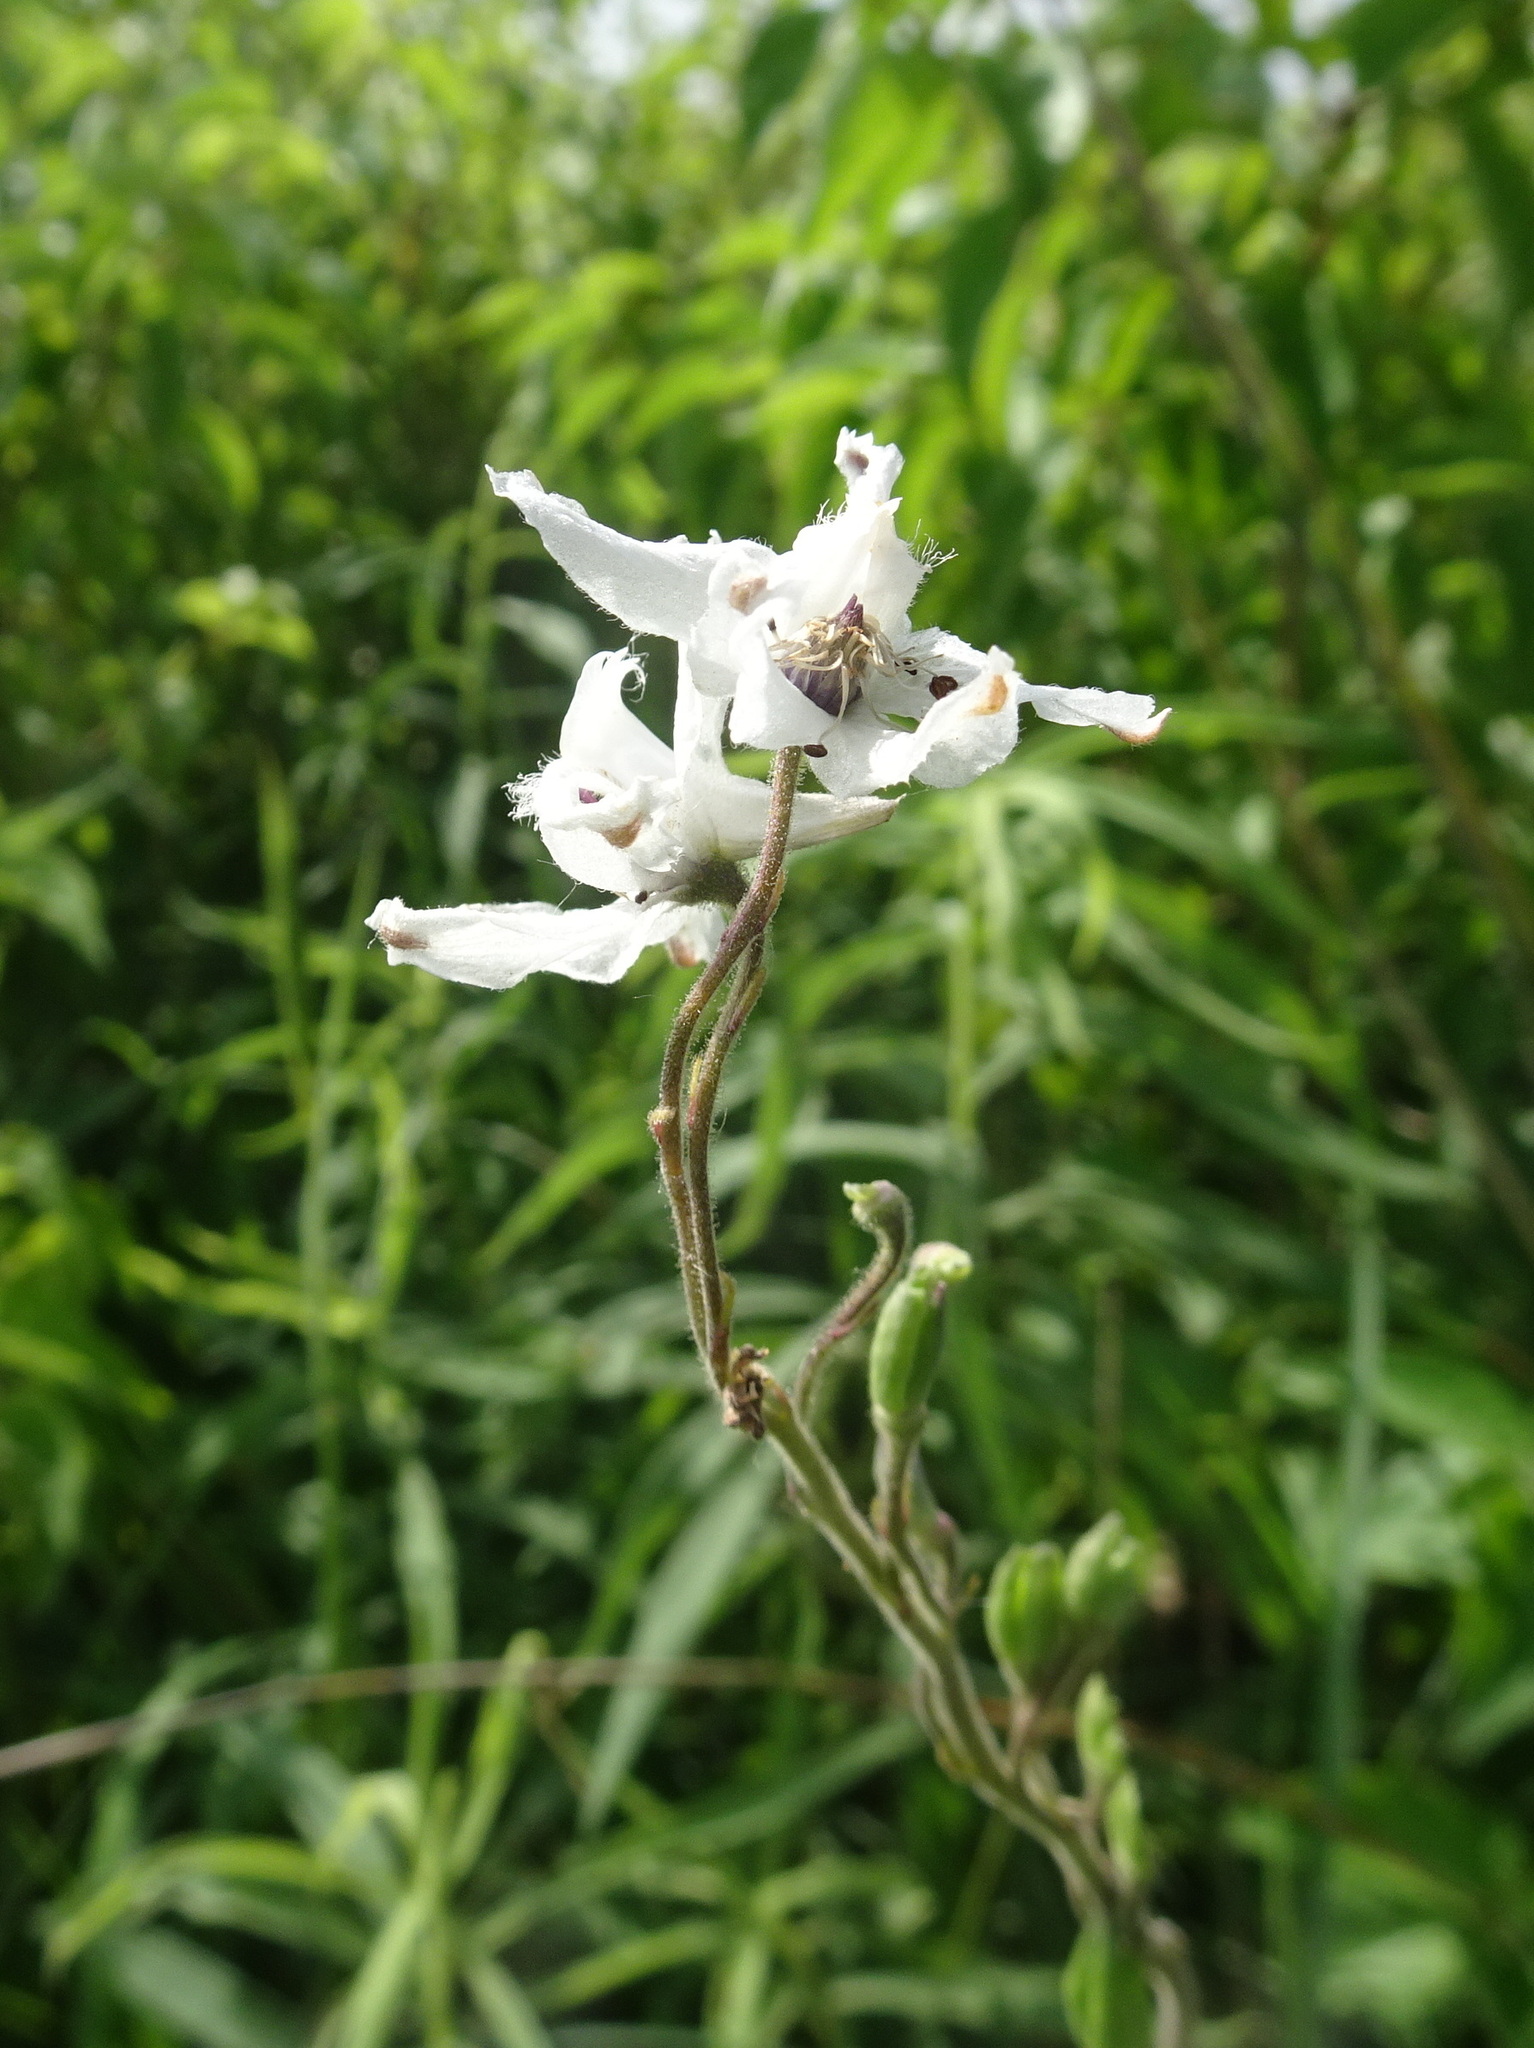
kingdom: Plantae
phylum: Tracheophyta
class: Magnoliopsida
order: Ranunculales
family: Ranunculaceae
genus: Delphinium
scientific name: Delphinium carolinianum
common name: Carolina larkspur
